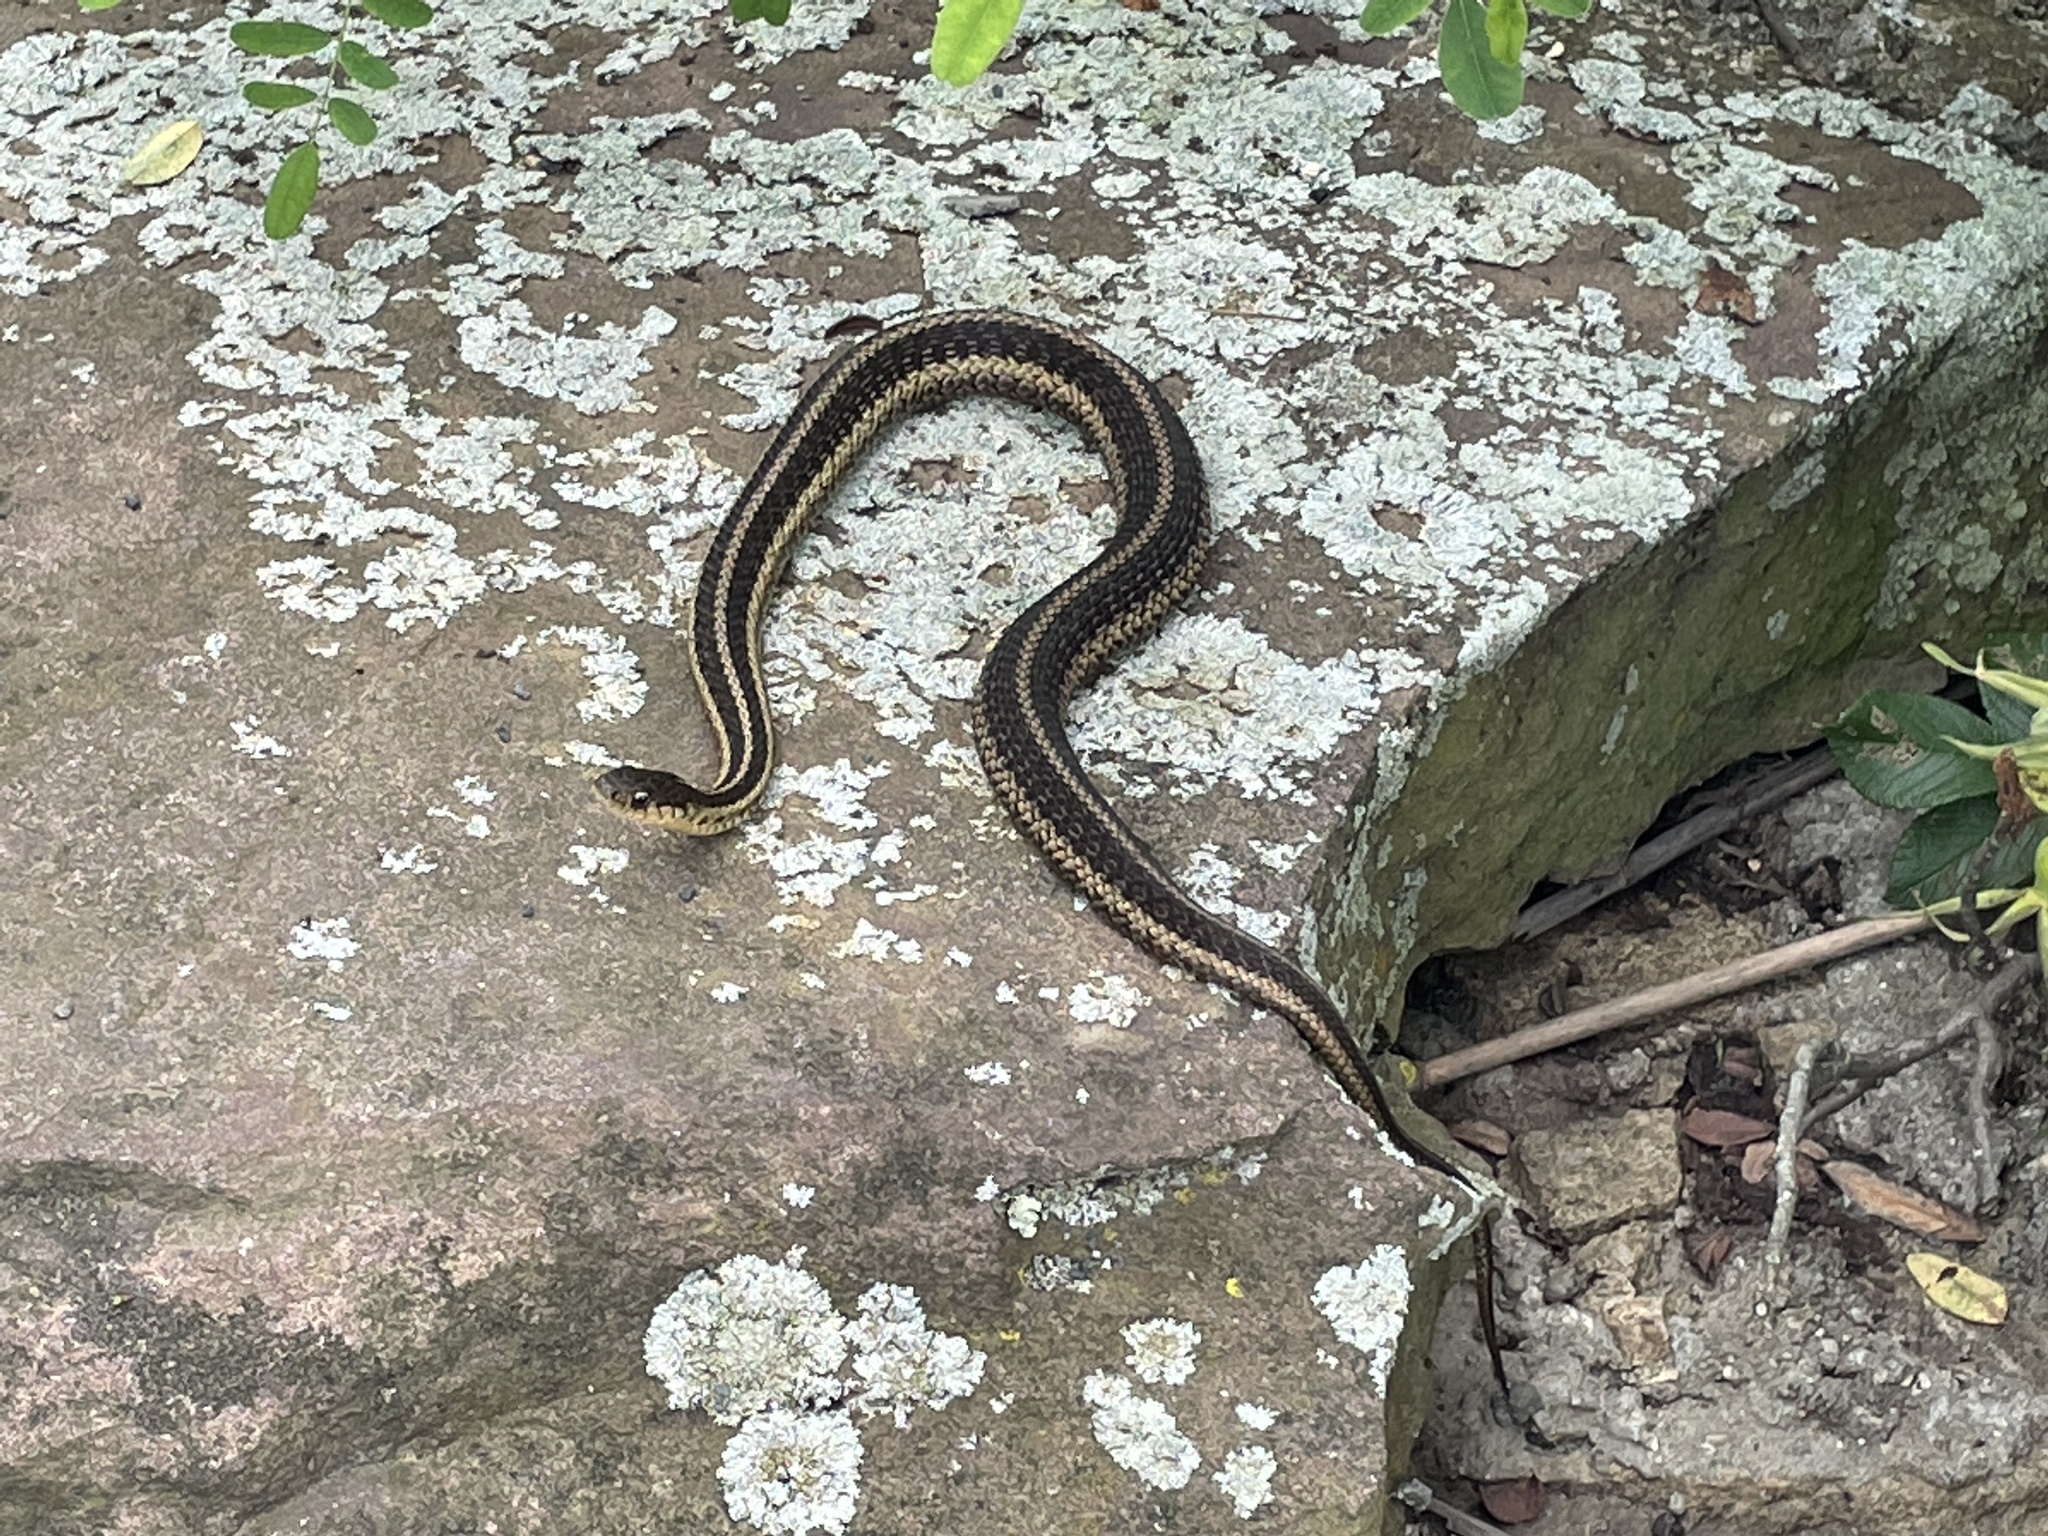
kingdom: Animalia
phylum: Chordata
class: Squamata
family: Colubridae
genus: Thamnophis
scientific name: Thamnophis sirtalis
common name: Common garter snake
